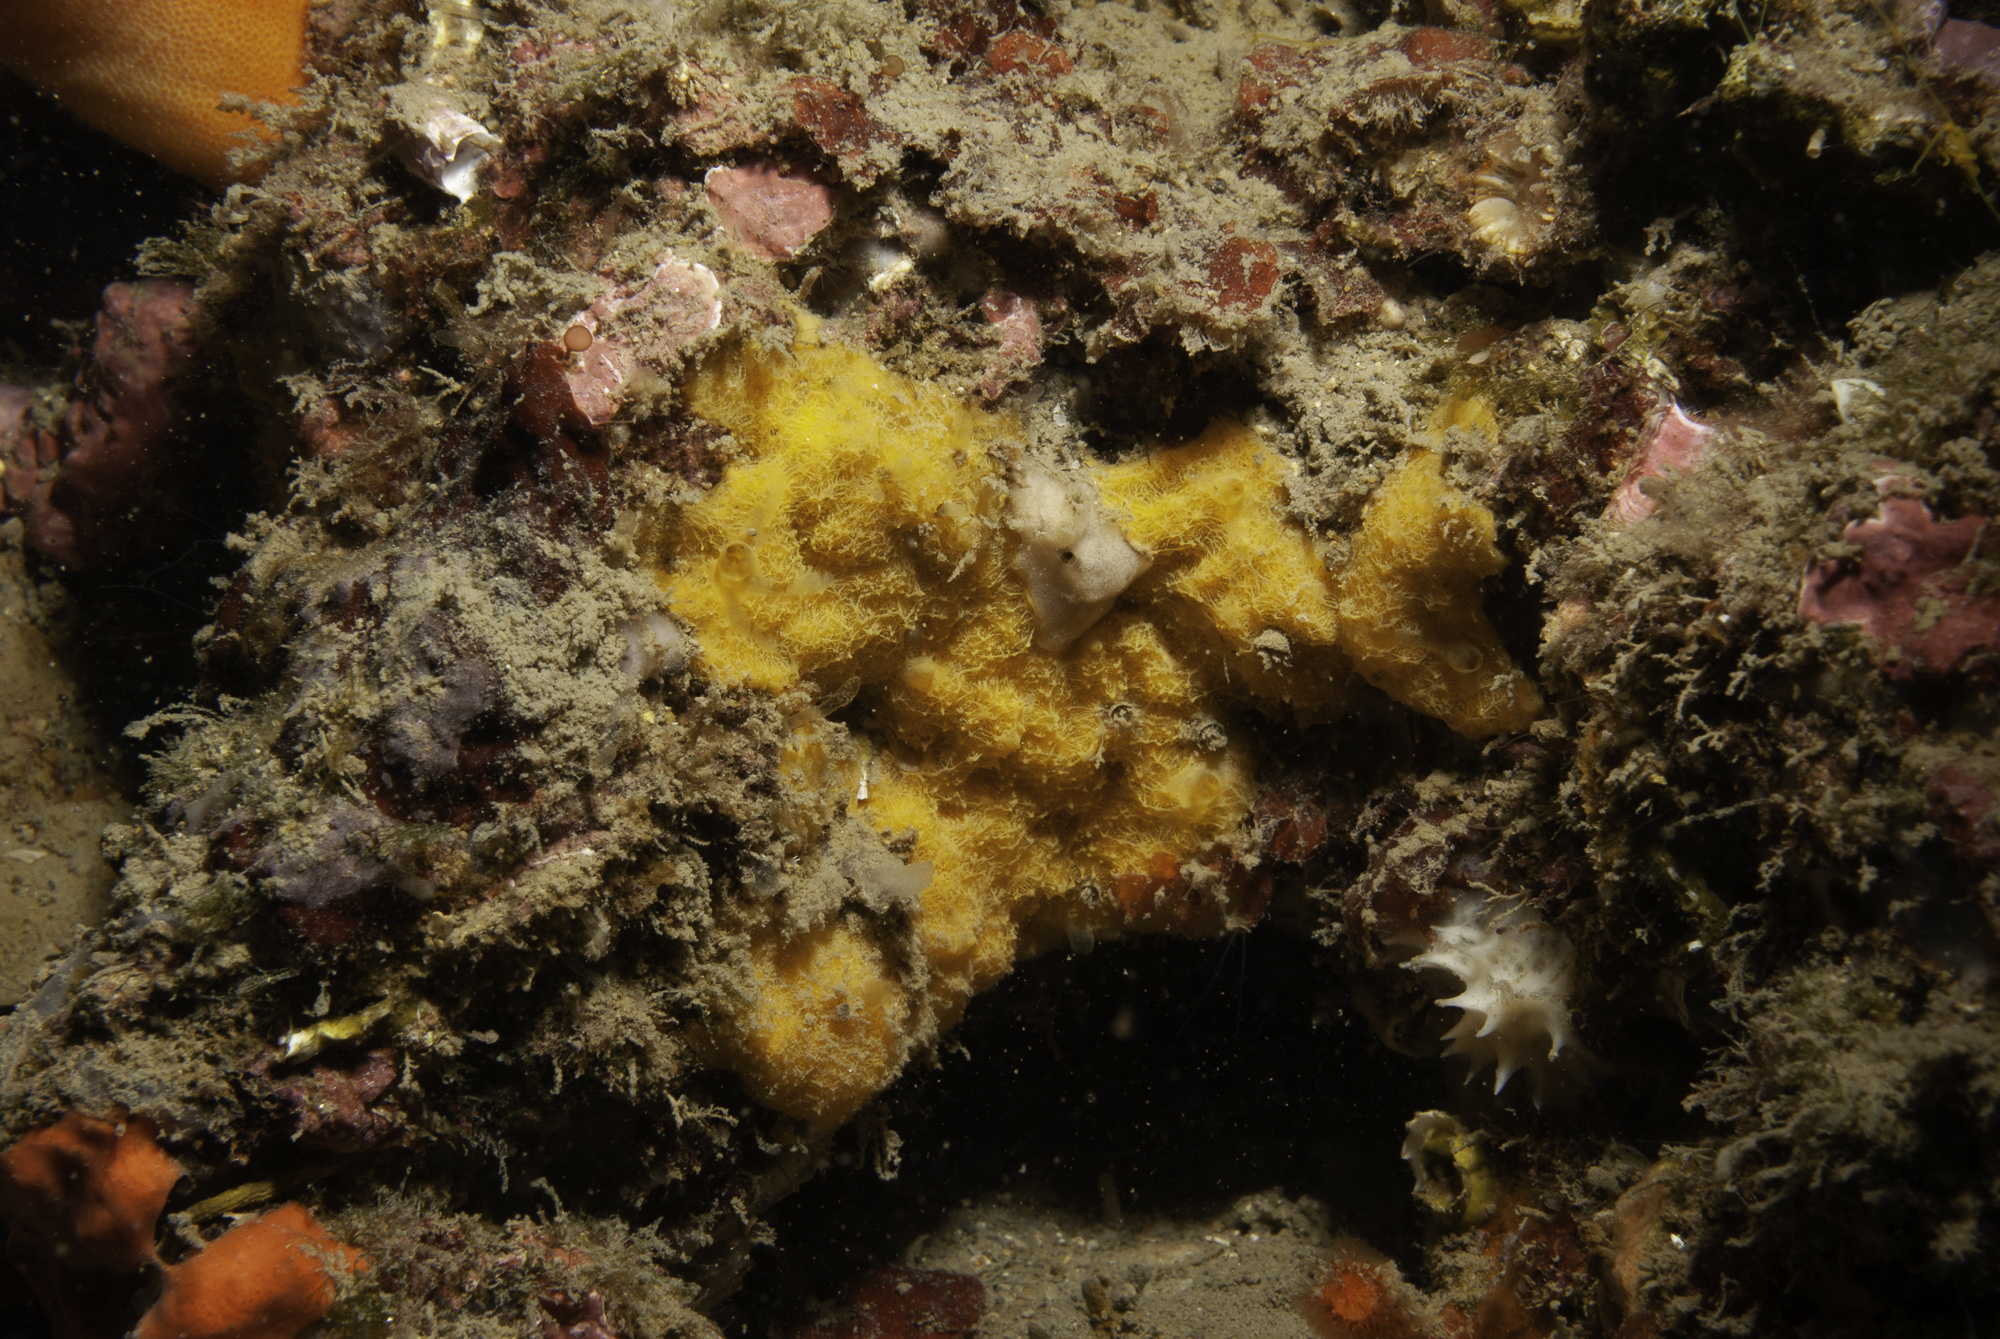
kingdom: Animalia
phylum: Porifera
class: Demospongiae
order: Agelasida
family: Hymerhabdiidae
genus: Prosuberites
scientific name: Prosuberites longispinus
